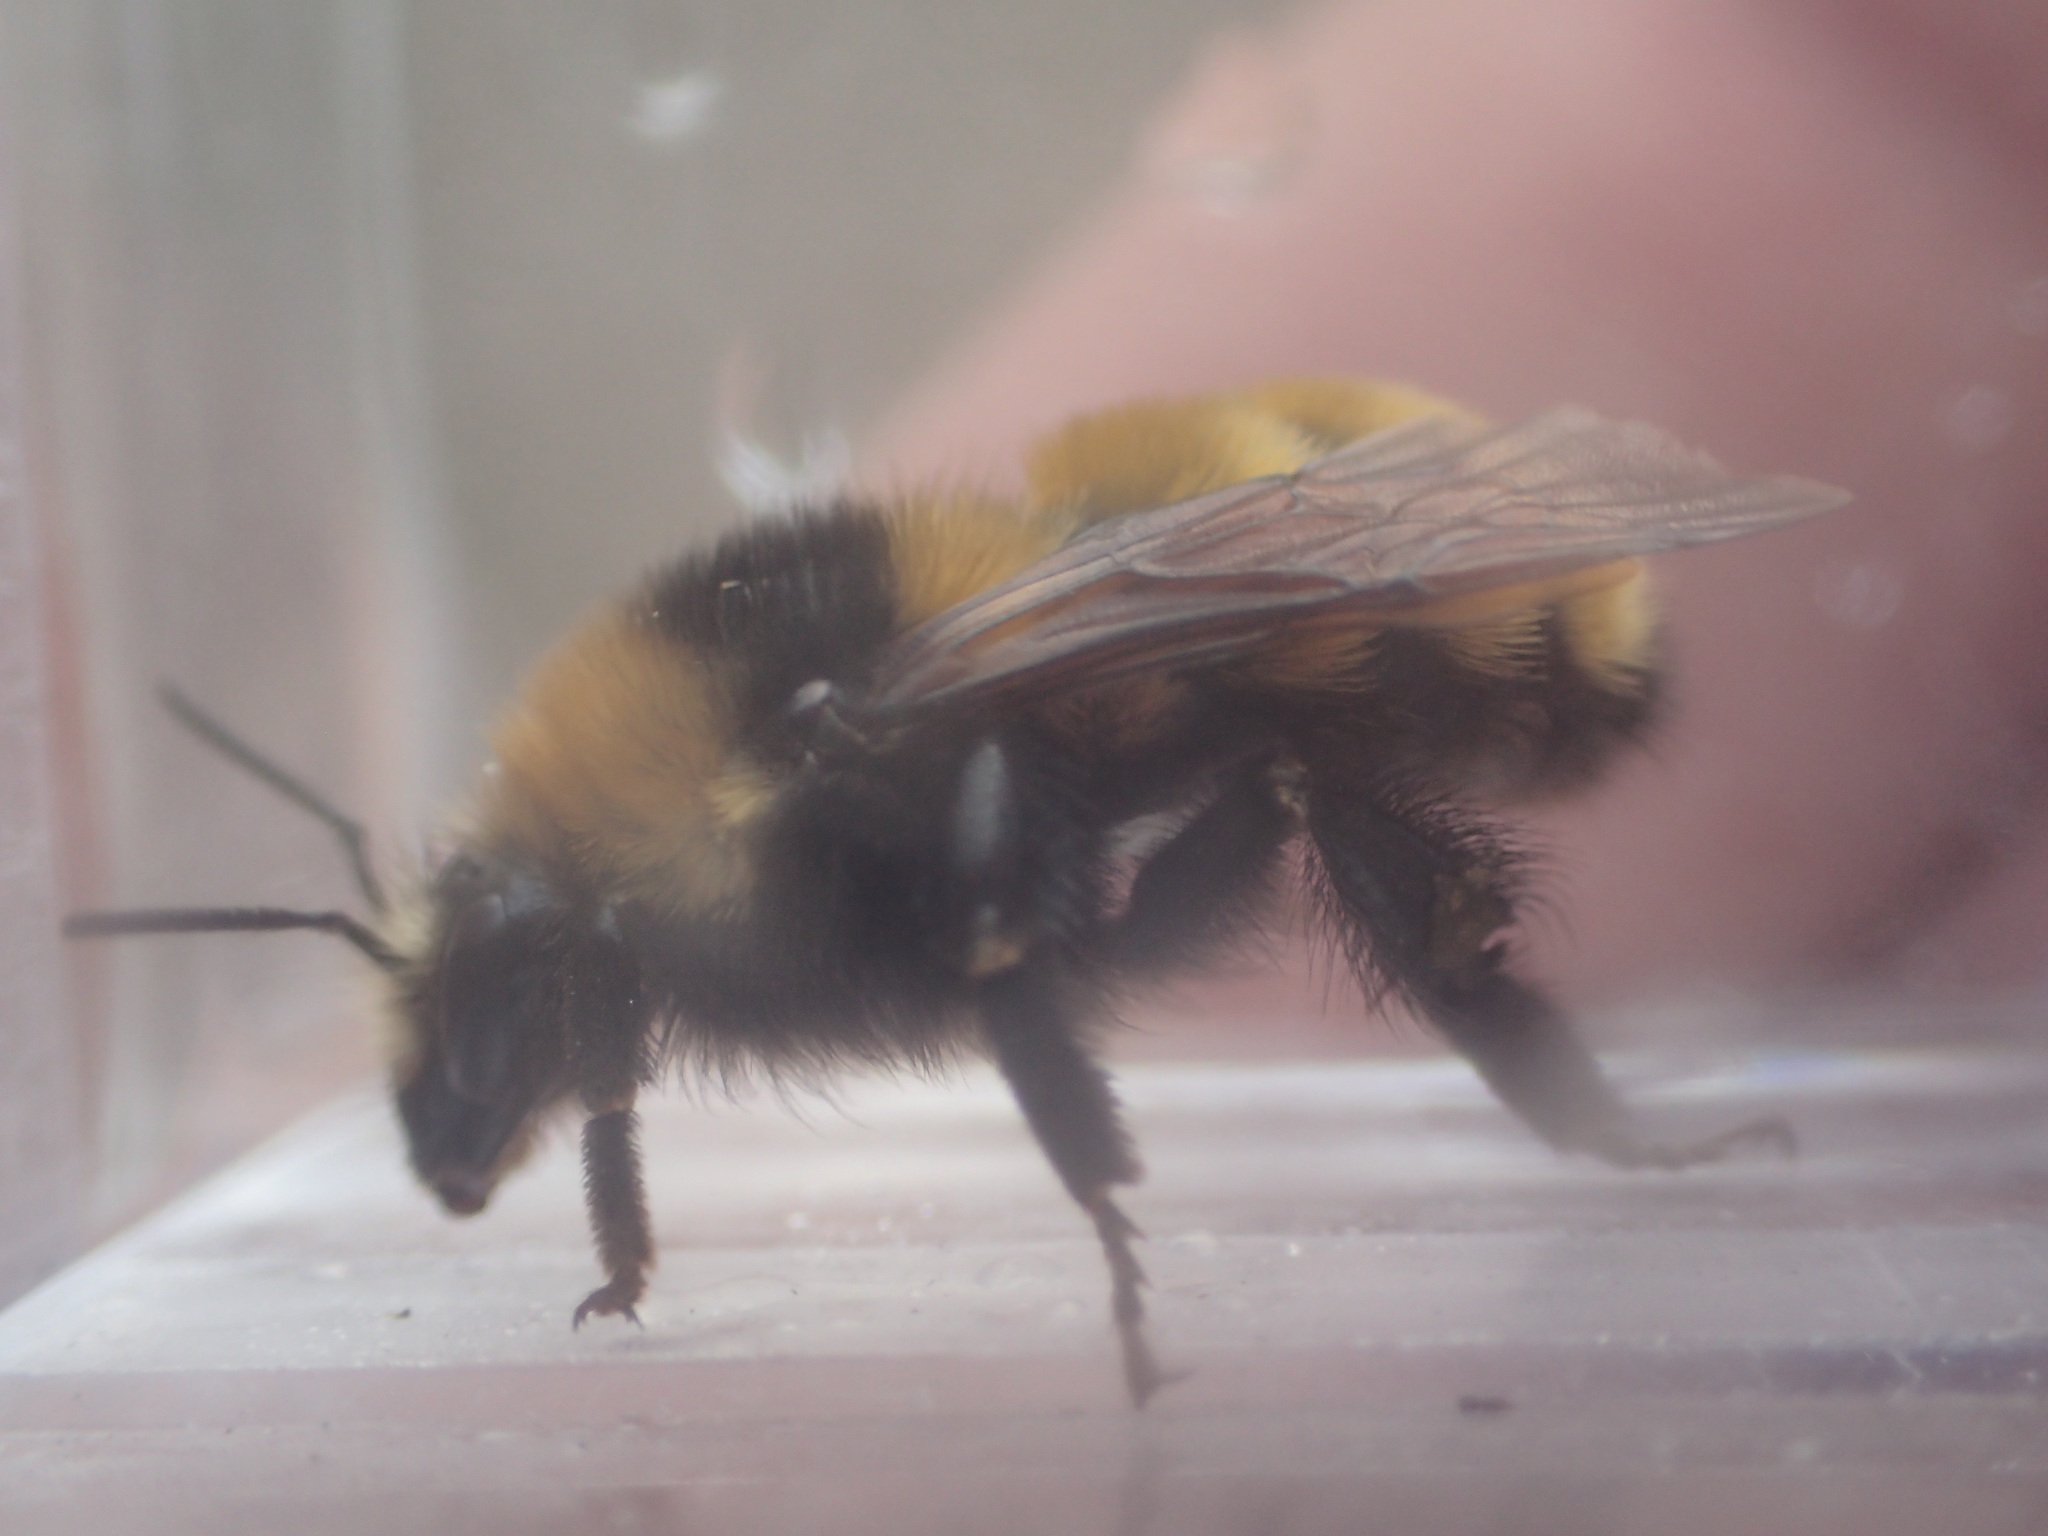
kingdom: Animalia
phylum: Arthropoda
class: Insecta
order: Hymenoptera
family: Apidae
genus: Bombus
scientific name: Bombus borealis
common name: Northern amber bumble bee
